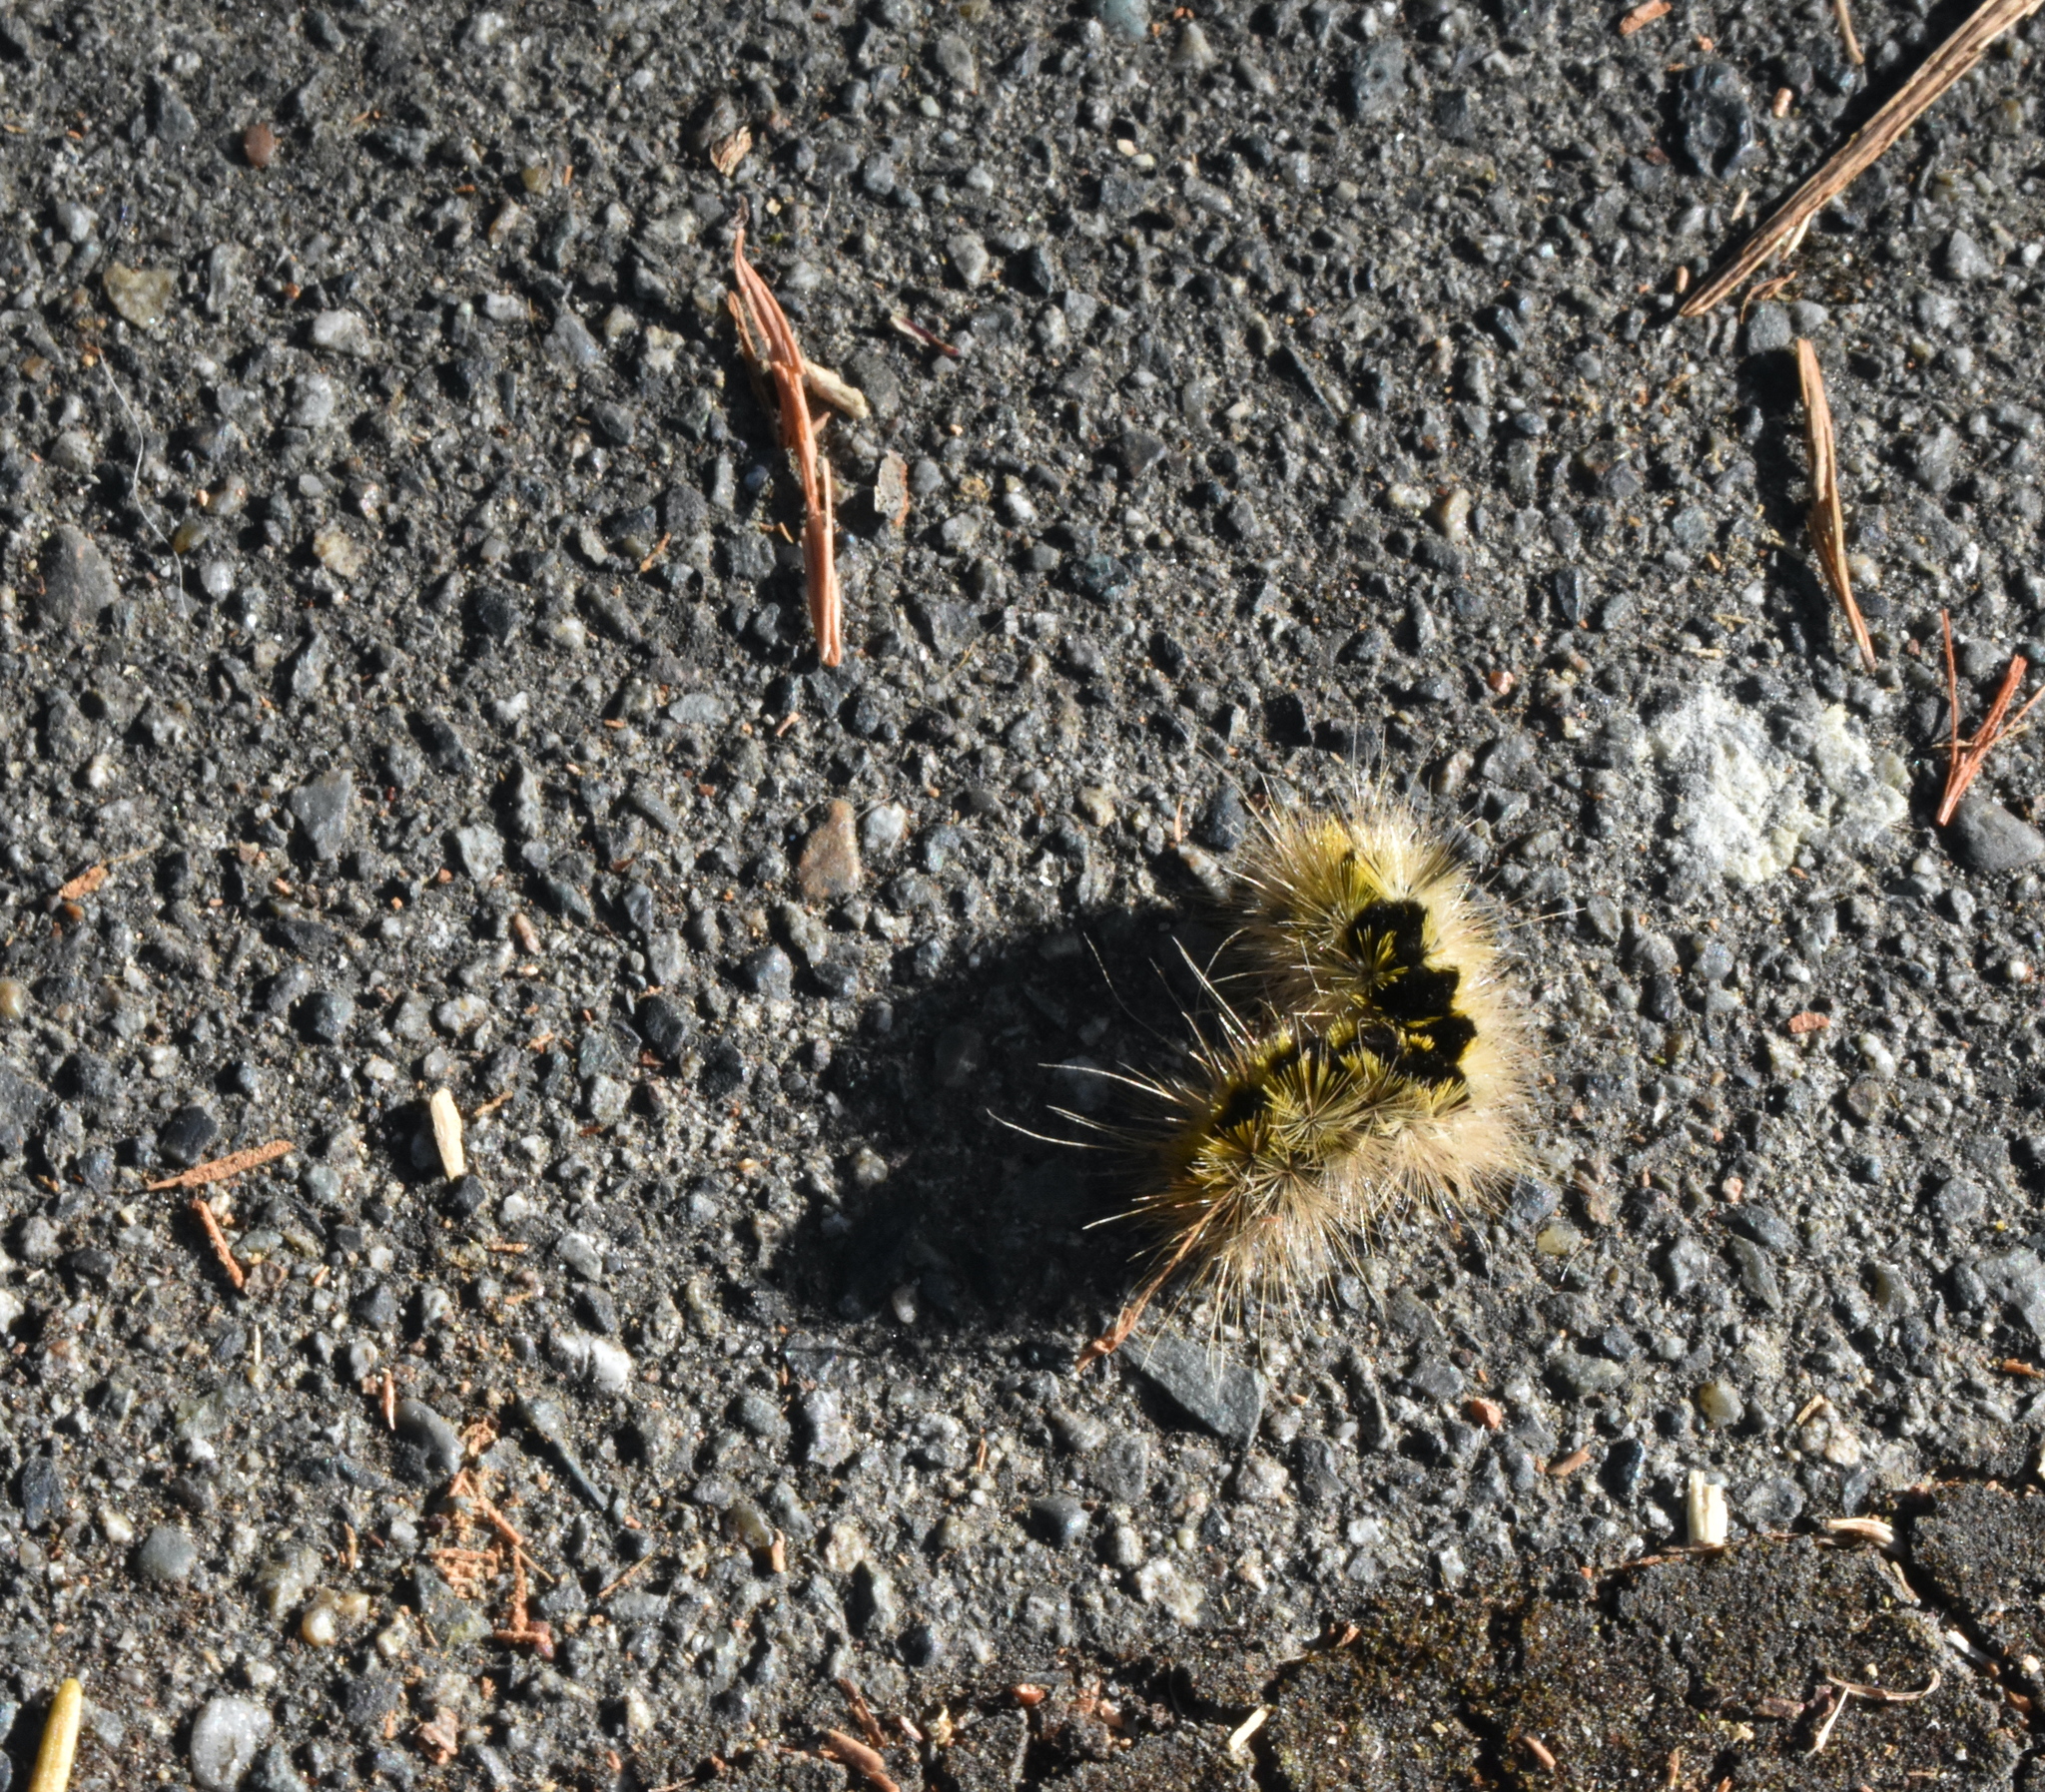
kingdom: Animalia
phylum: Arthropoda
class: Insecta
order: Lepidoptera
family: Erebidae
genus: Lophocampa
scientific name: Lophocampa argentata
